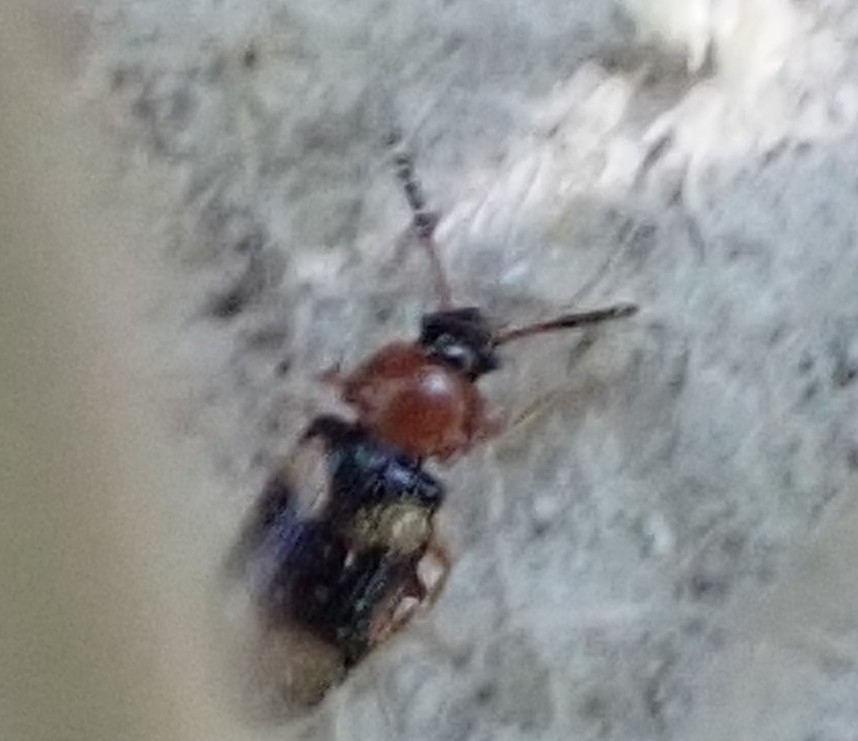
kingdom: Animalia
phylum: Arthropoda
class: Insecta
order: Coleoptera
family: Mycetophagidae
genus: Mycetophagus
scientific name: Mycetophagus fulvicollis
